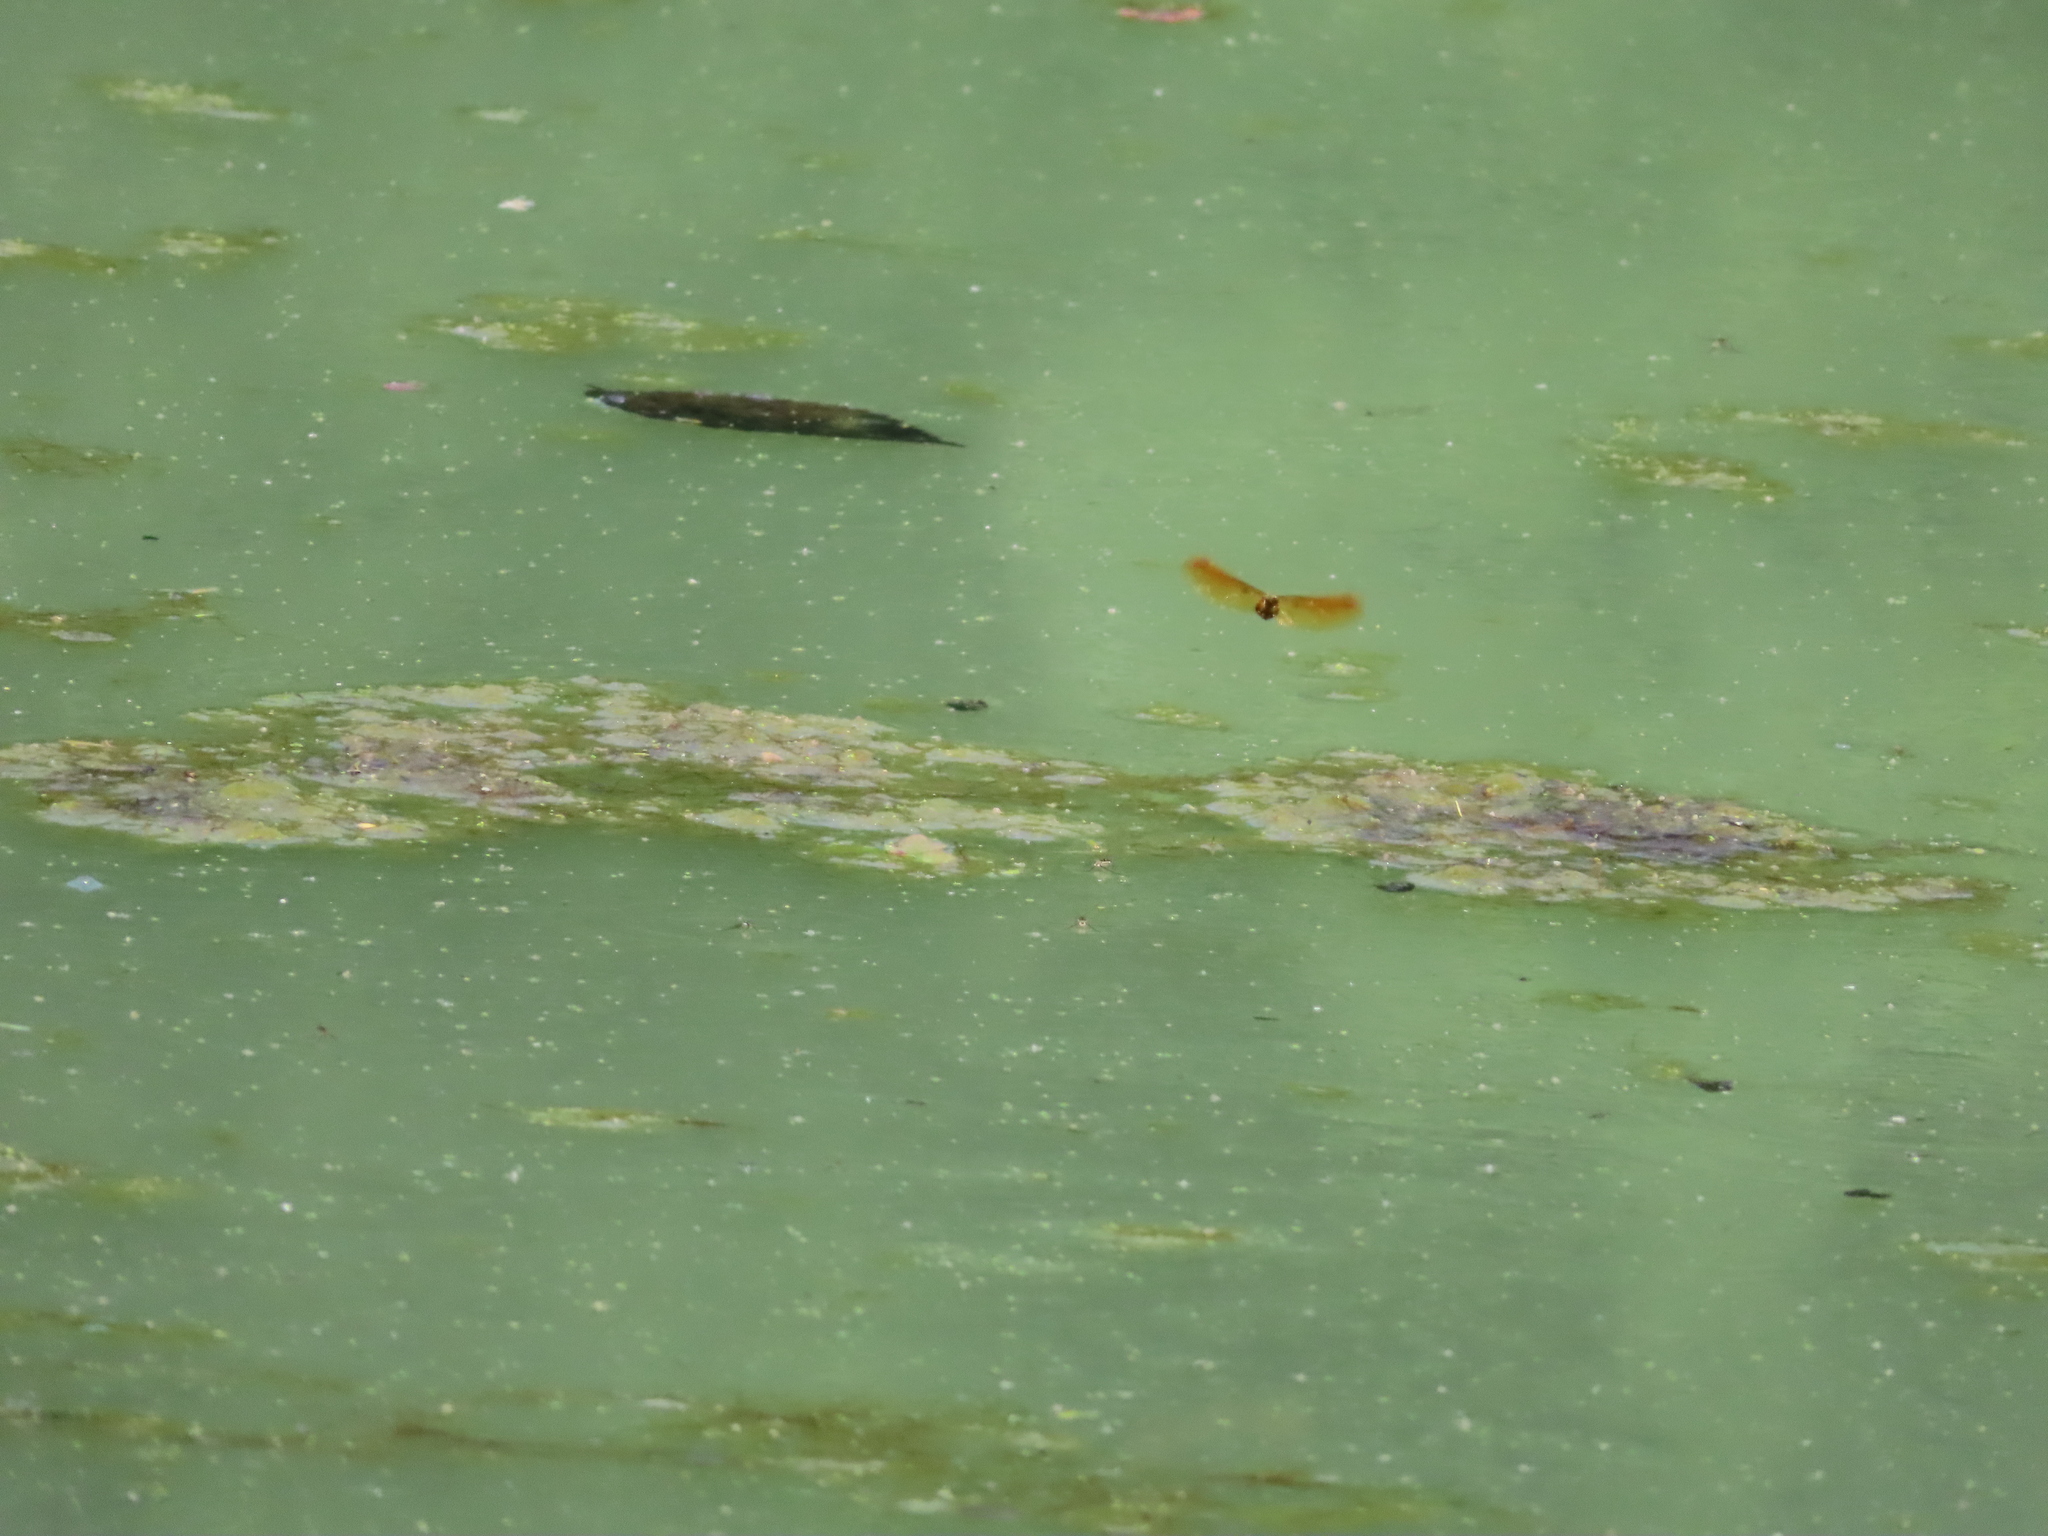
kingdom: Animalia
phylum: Arthropoda
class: Insecta
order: Odonata
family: Libellulidae
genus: Perithemis
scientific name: Perithemis tenera
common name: Eastern amberwing
